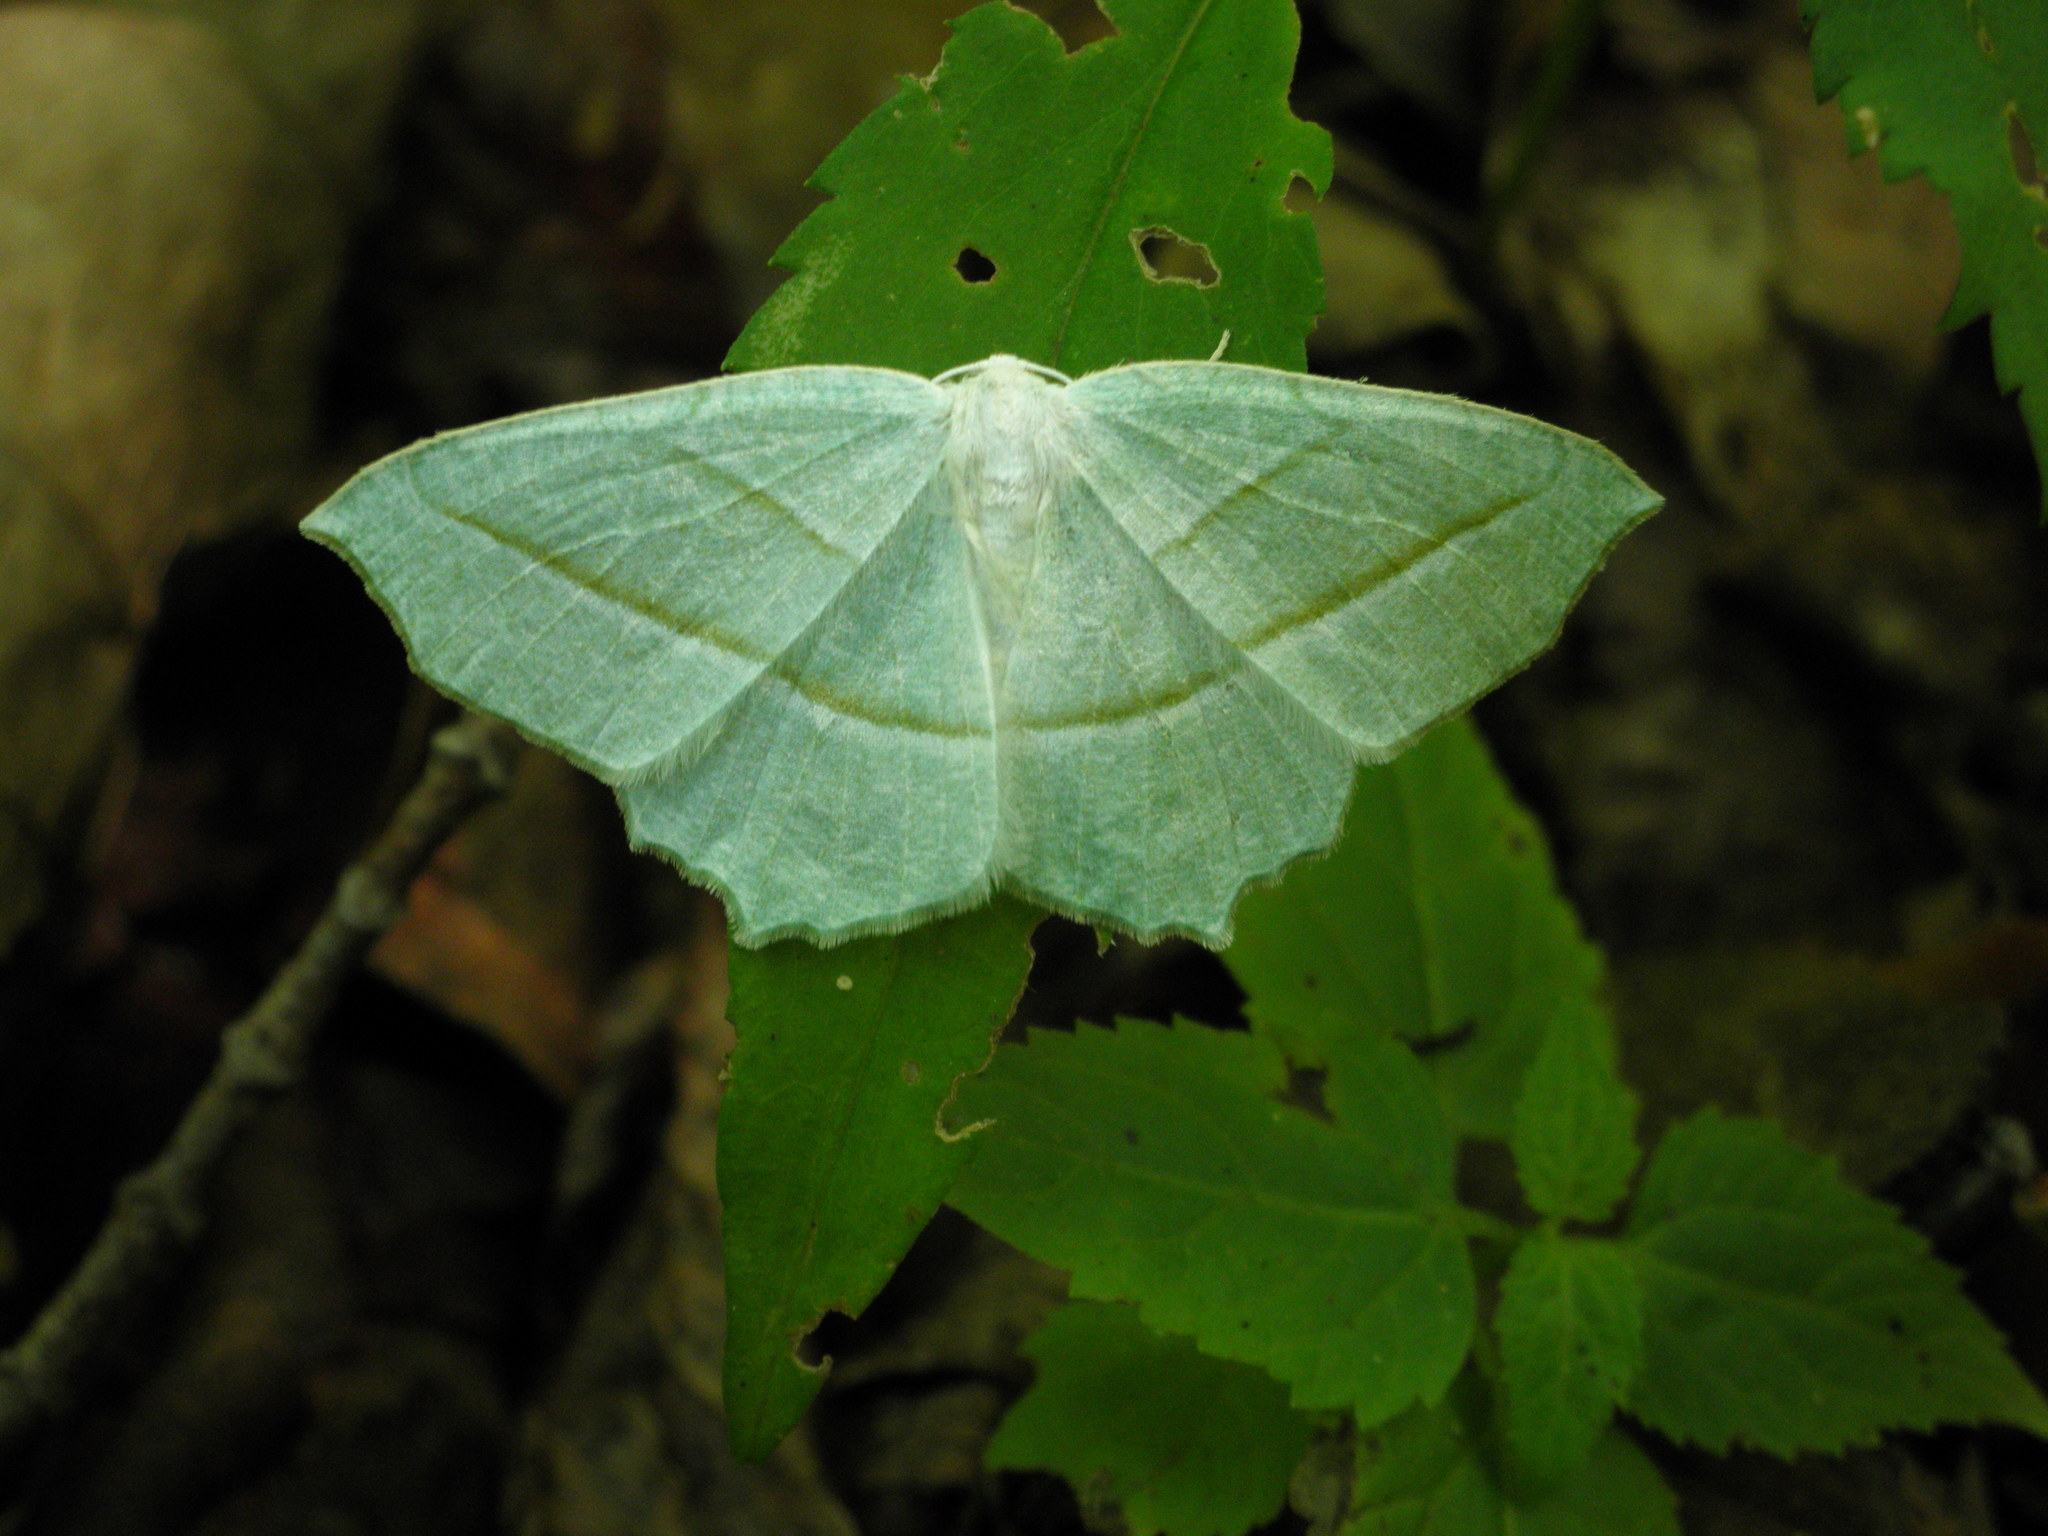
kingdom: Animalia
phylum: Arthropoda
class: Insecta
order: Lepidoptera
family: Geometridae
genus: Campaea
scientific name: Campaea perlata
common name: Fringed looper
